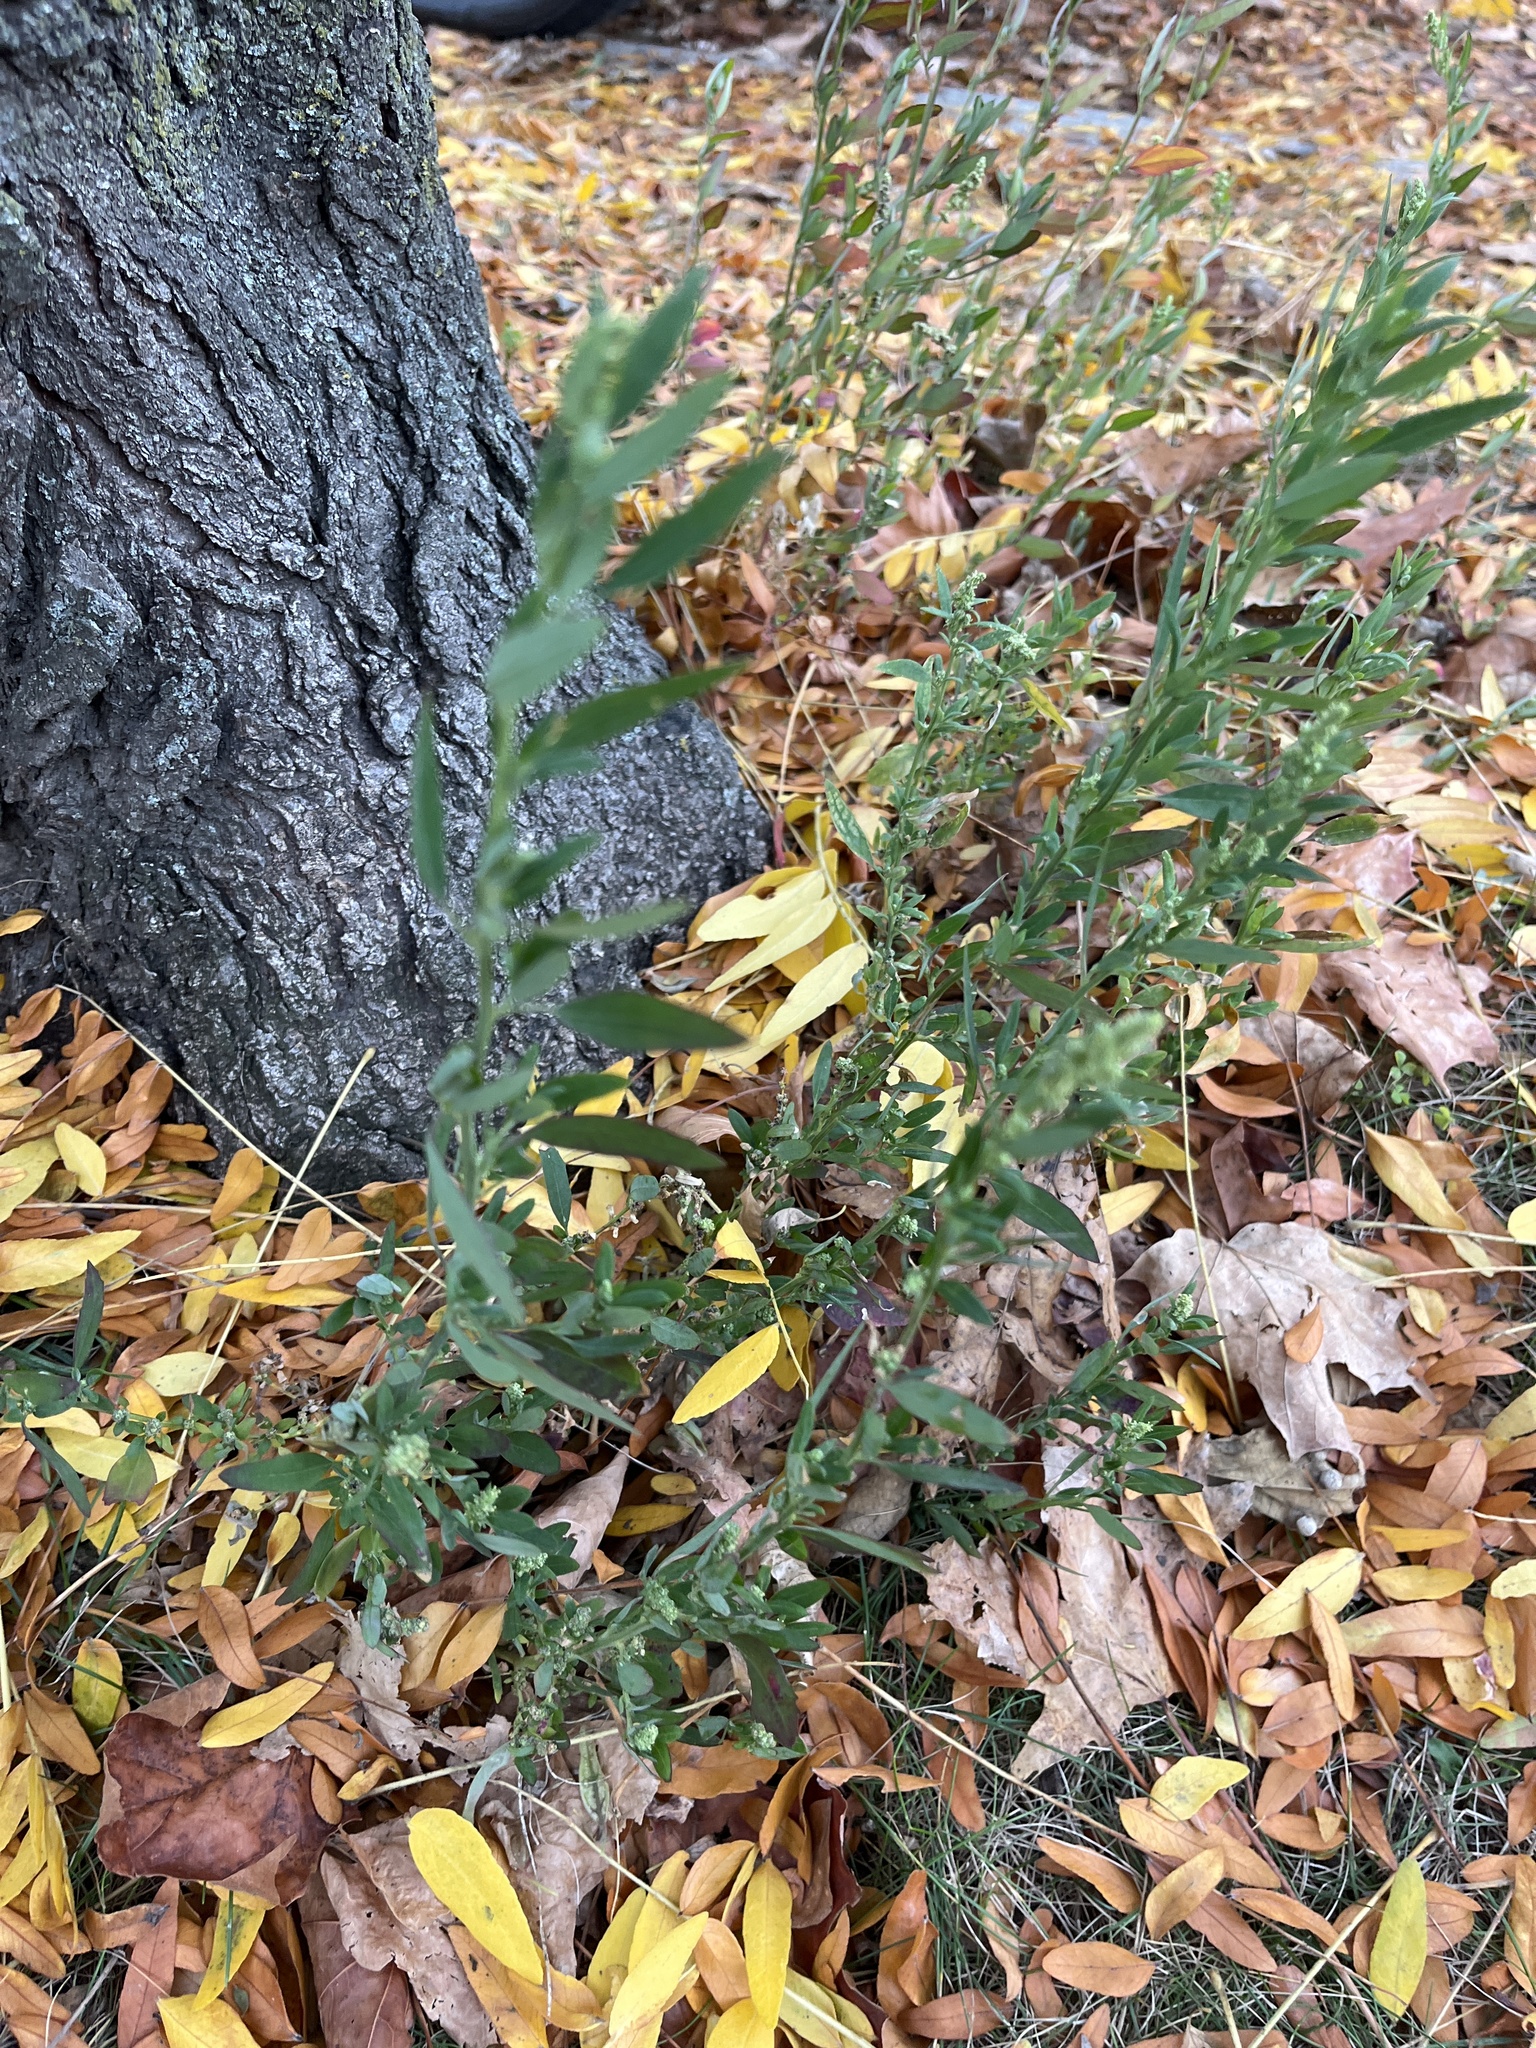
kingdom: Plantae
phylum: Tracheophyta
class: Magnoliopsida
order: Caryophyllales
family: Amaranthaceae
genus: Chenopodium
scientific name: Chenopodium album
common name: Fat-hen
